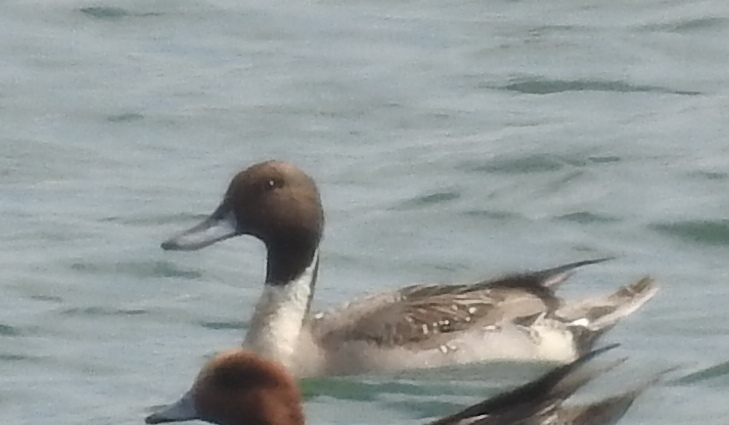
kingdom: Animalia
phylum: Chordata
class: Aves
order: Anseriformes
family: Anatidae
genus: Anas
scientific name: Anas acuta
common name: Northern pintail
